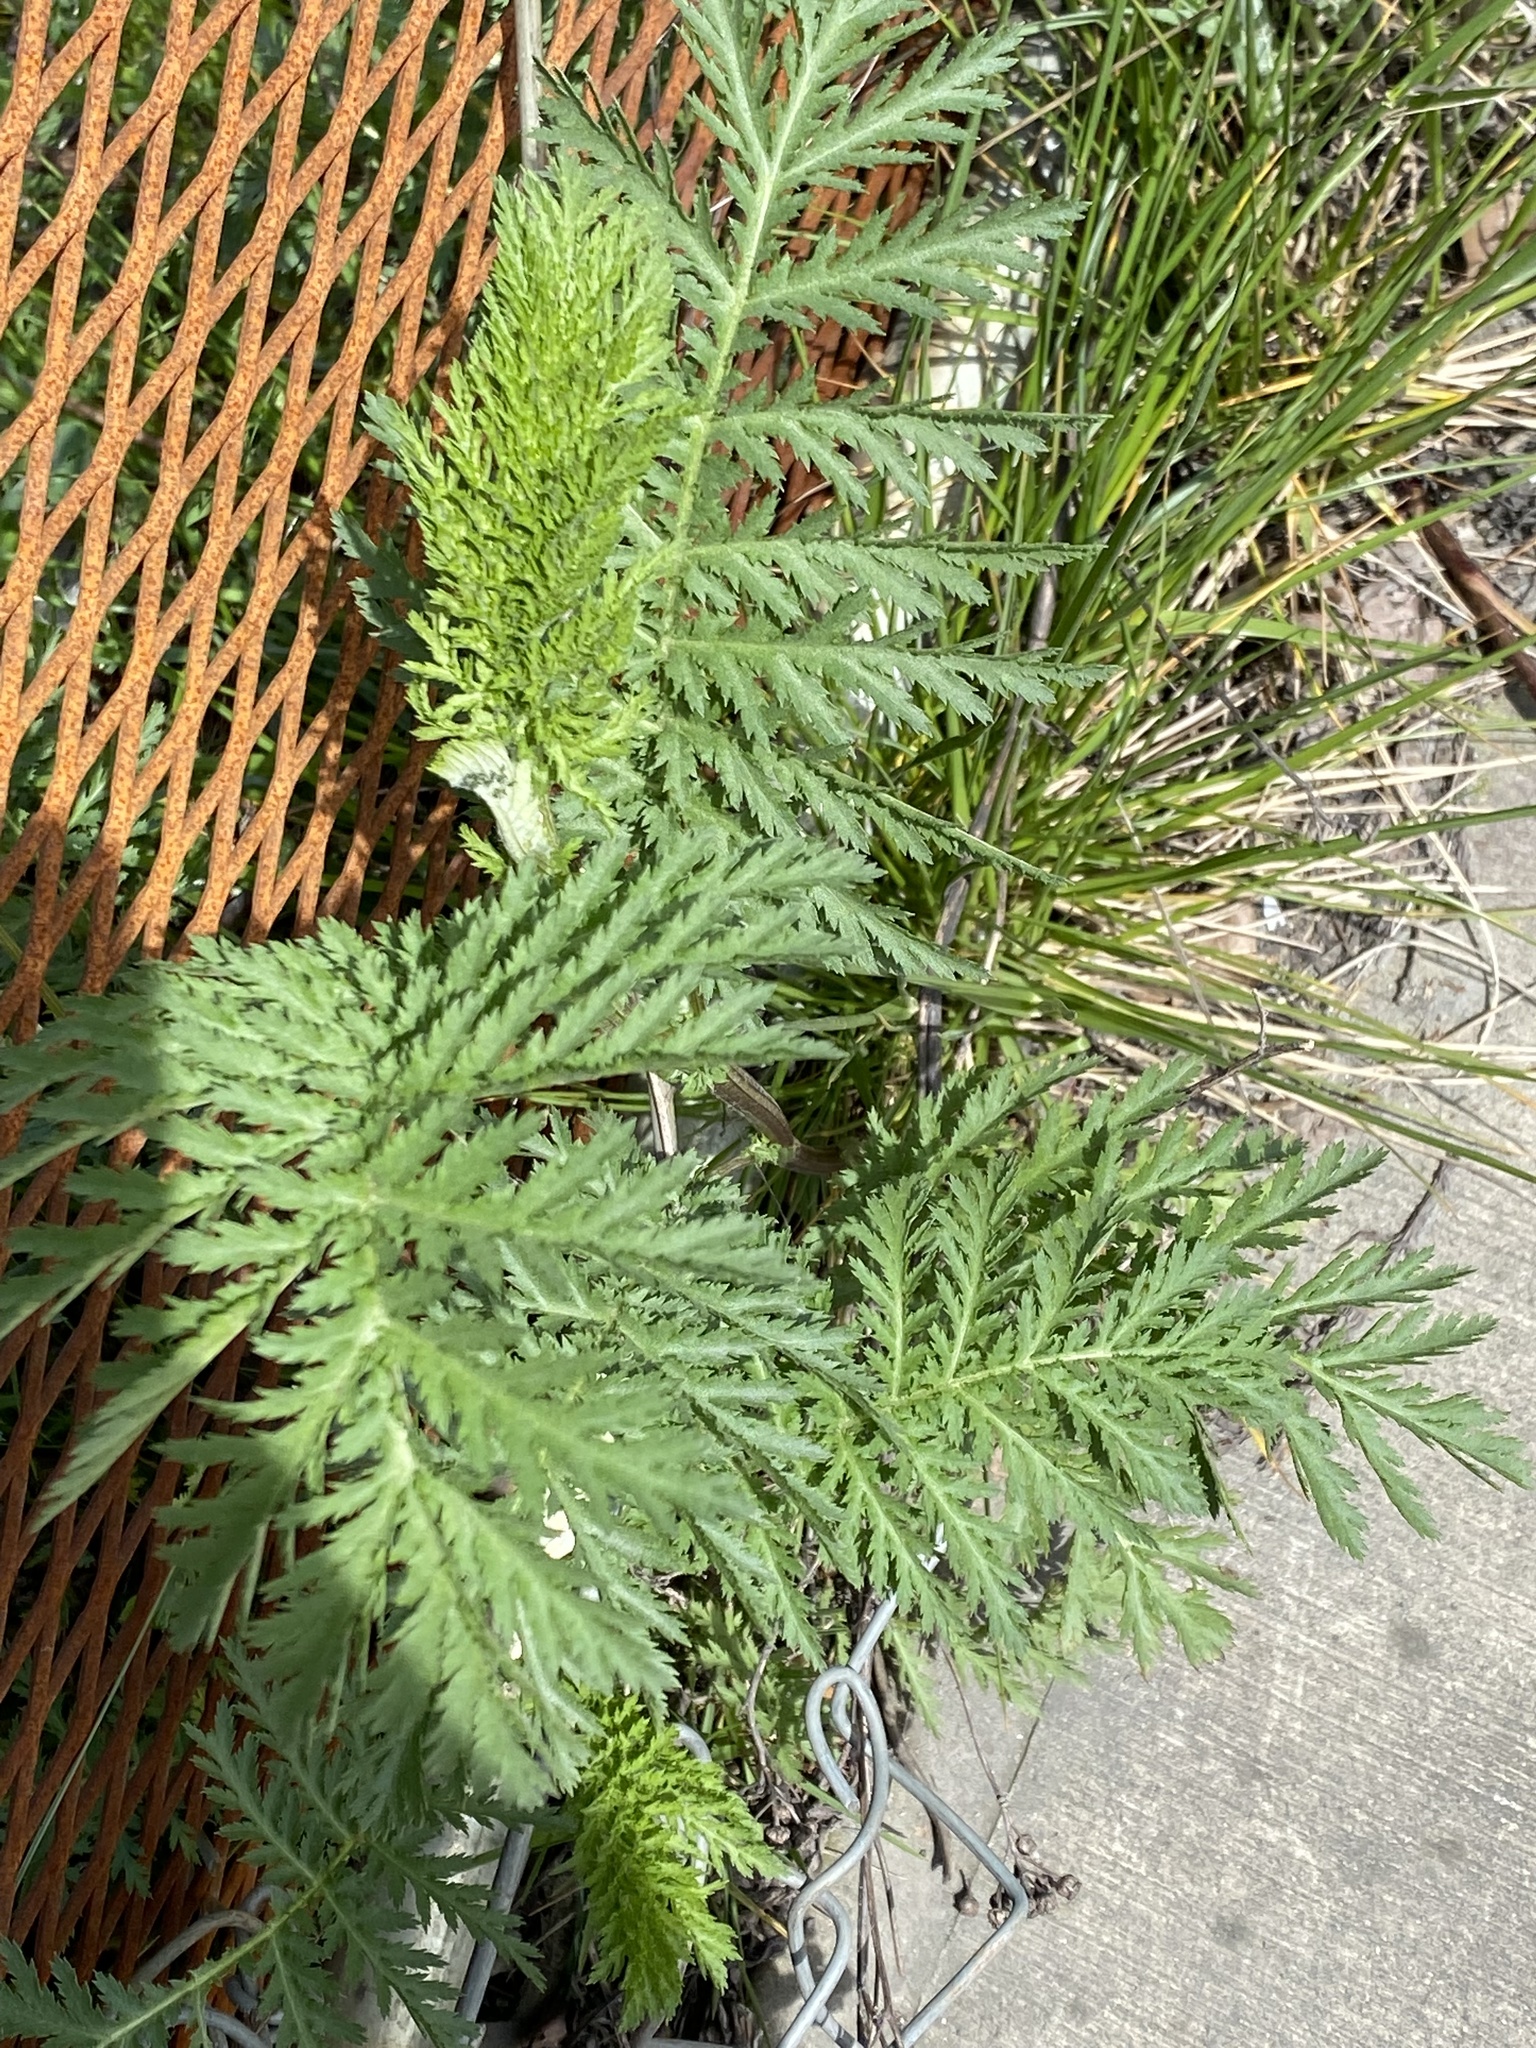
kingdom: Plantae
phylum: Tracheophyta
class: Magnoliopsida
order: Asterales
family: Asteraceae
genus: Tanacetum
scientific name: Tanacetum vulgare
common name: Common tansy
